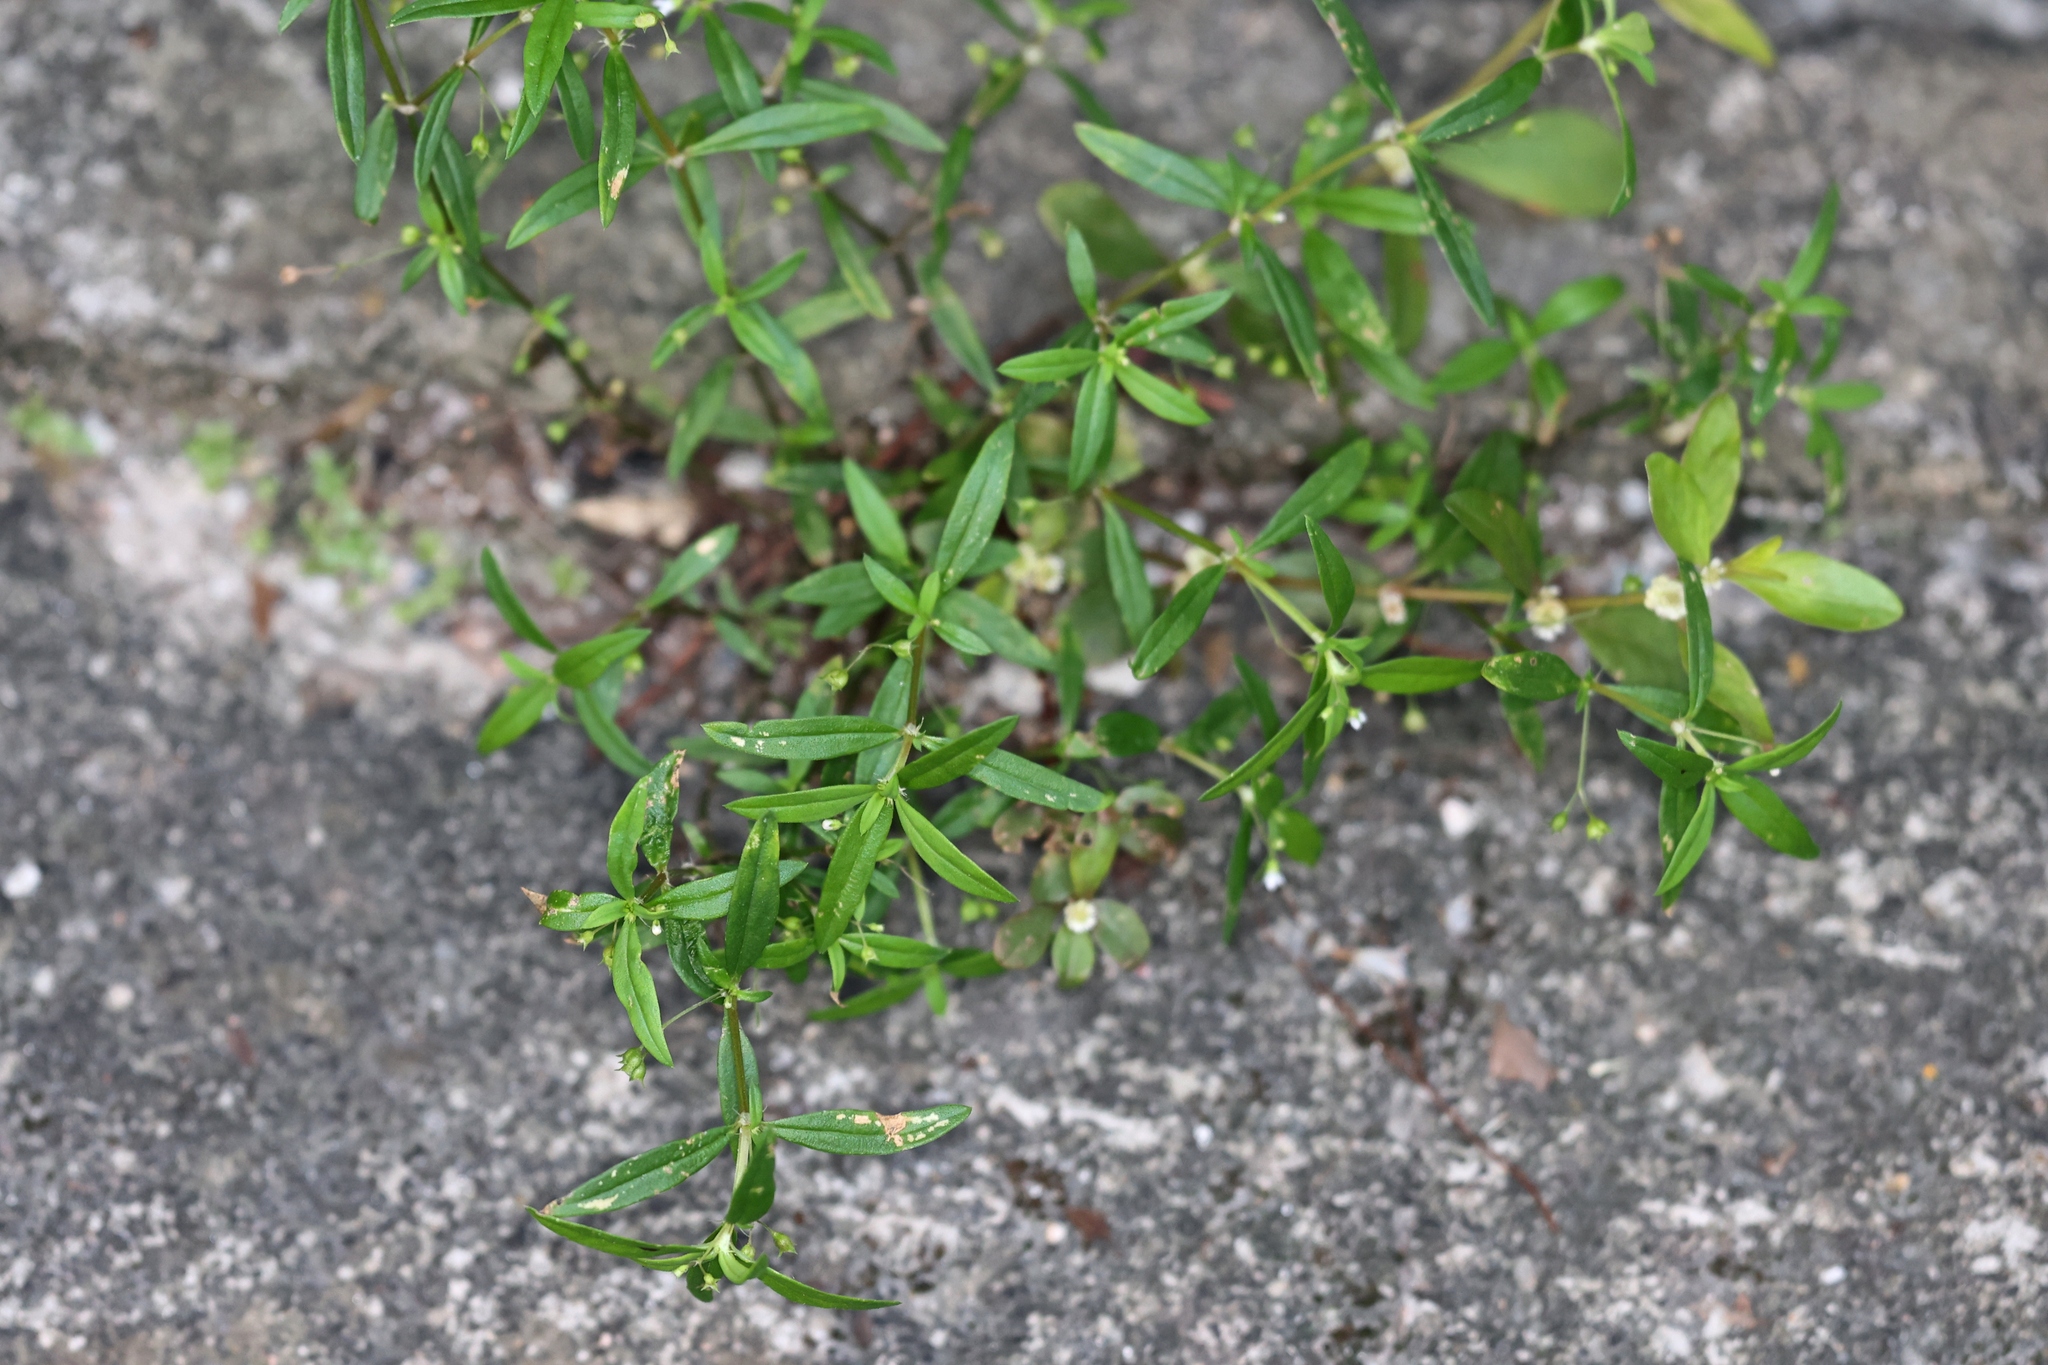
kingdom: Plantae
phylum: Tracheophyta
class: Magnoliopsida
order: Gentianales
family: Rubiaceae
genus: Oldenlandia
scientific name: Oldenlandia corymbosa
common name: Flat-top mille graines
